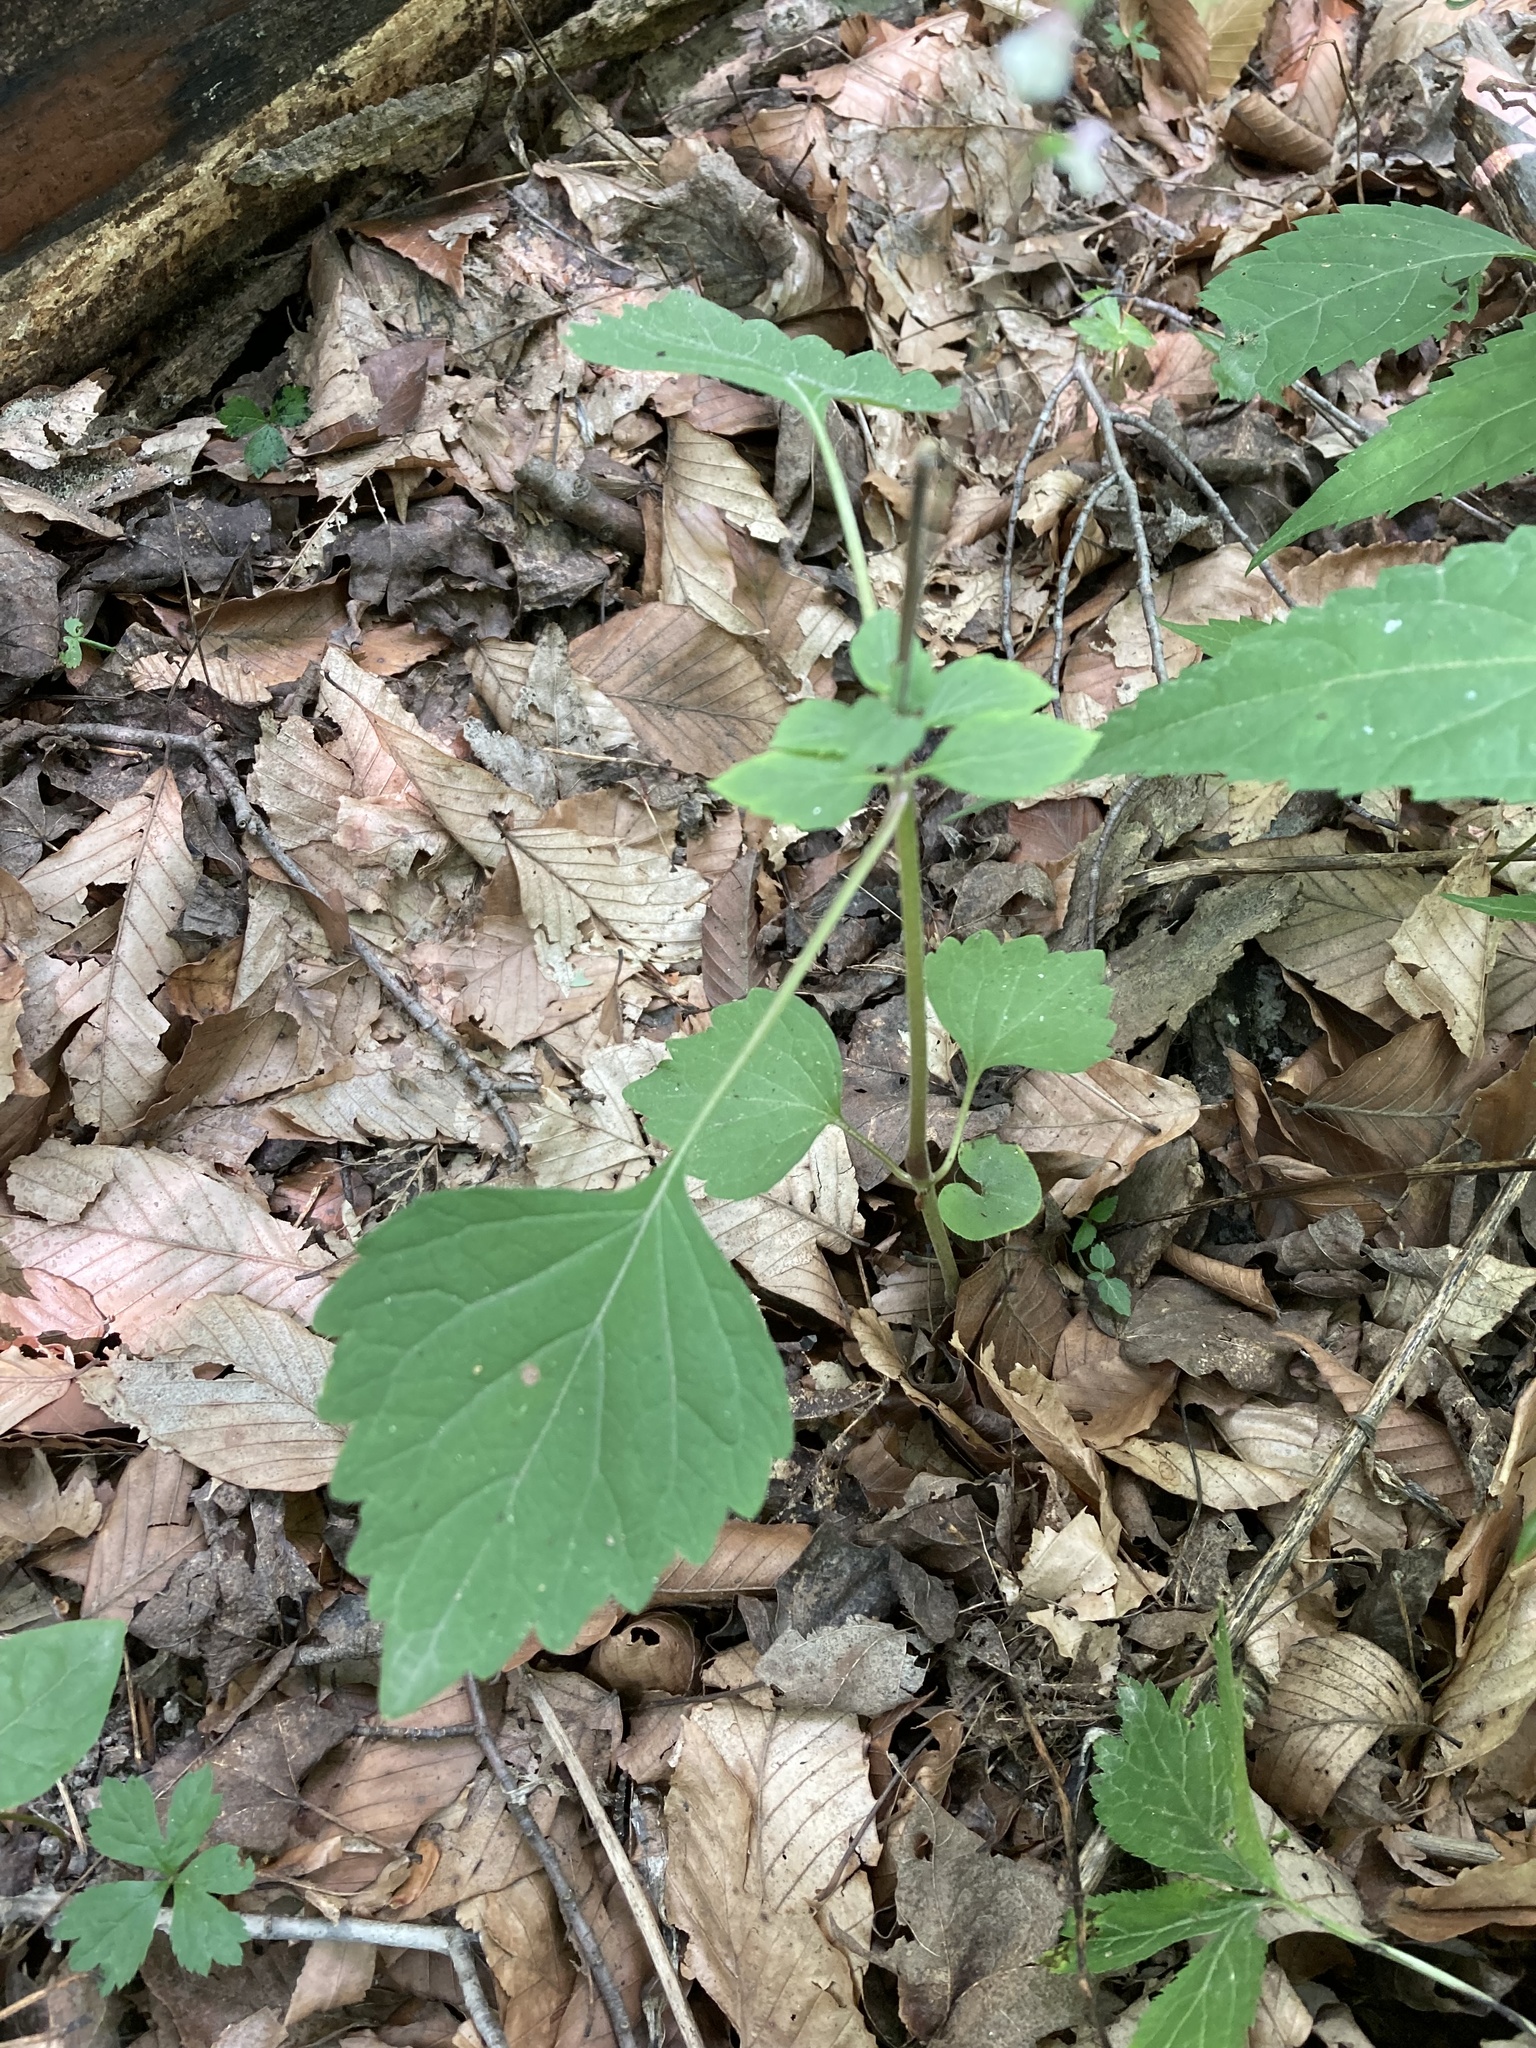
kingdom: Plantae
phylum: Tracheophyta
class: Magnoliopsida
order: Lamiales
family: Phrymaceae
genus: Phryma
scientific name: Phryma leptostachya
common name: American lopseed
